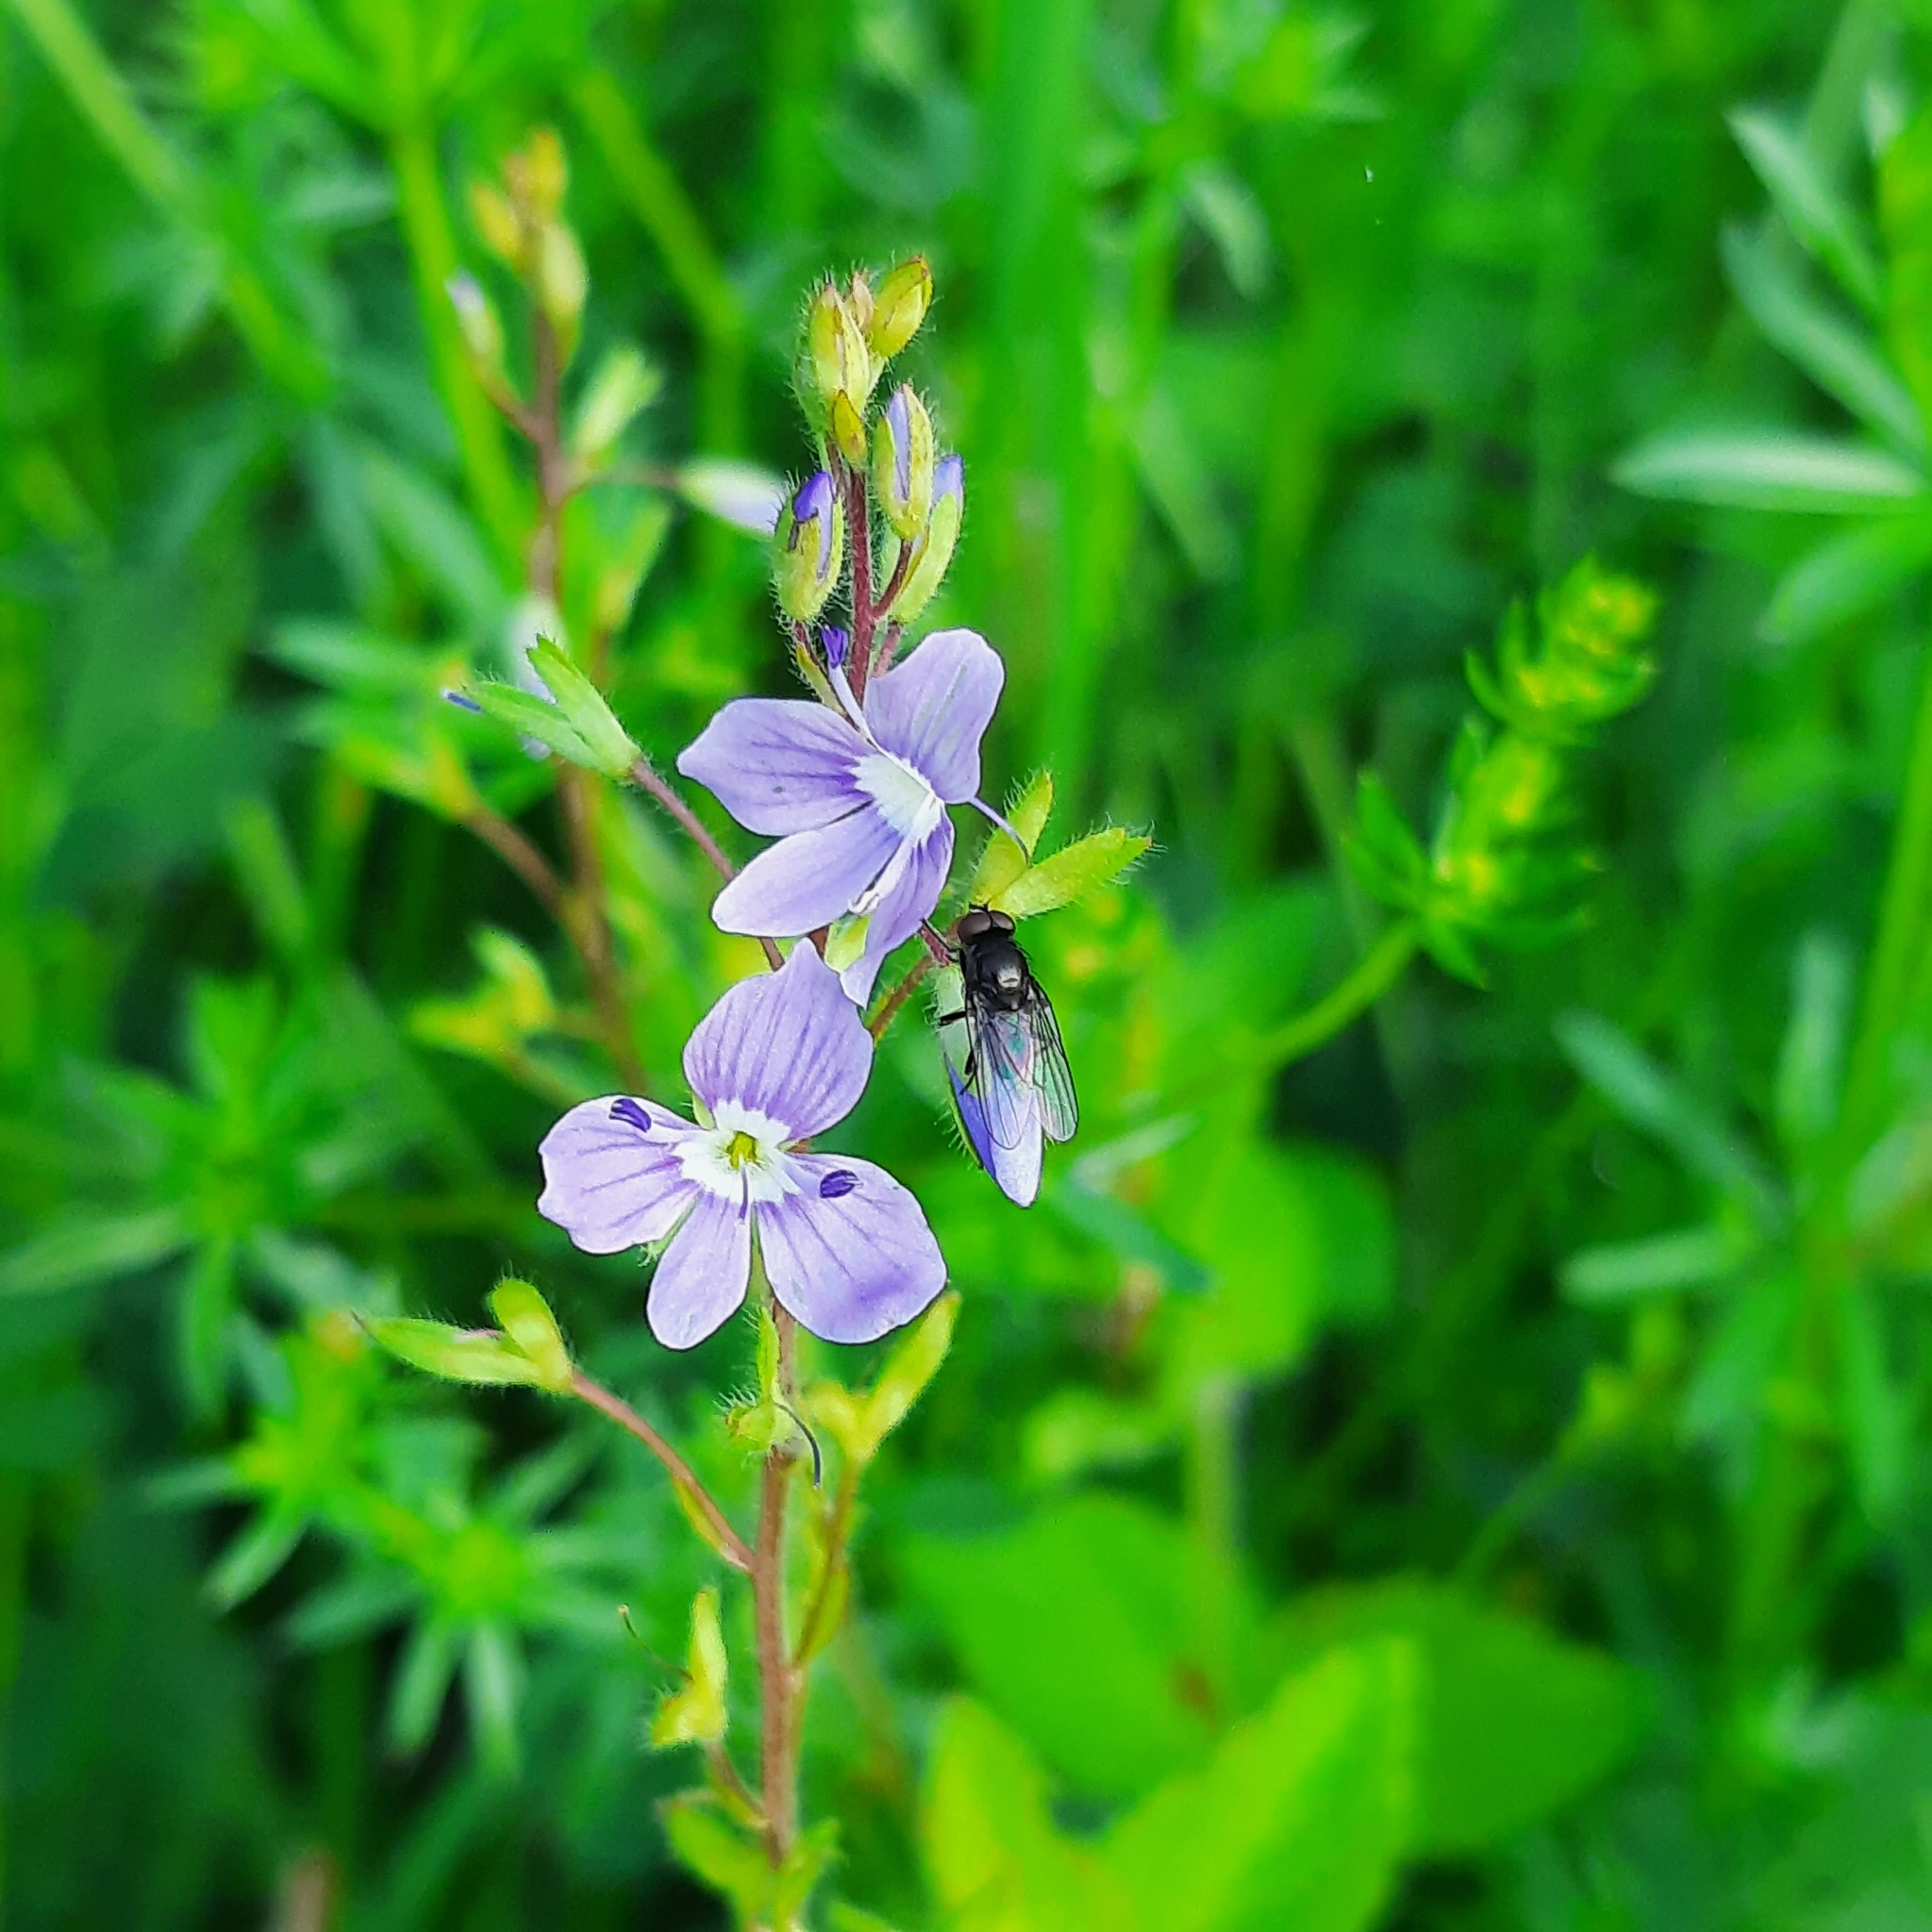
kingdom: Plantae
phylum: Tracheophyta
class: Magnoliopsida
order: Lamiales
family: Plantaginaceae
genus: Veronica
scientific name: Veronica chamaedrys
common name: Germander speedwell
